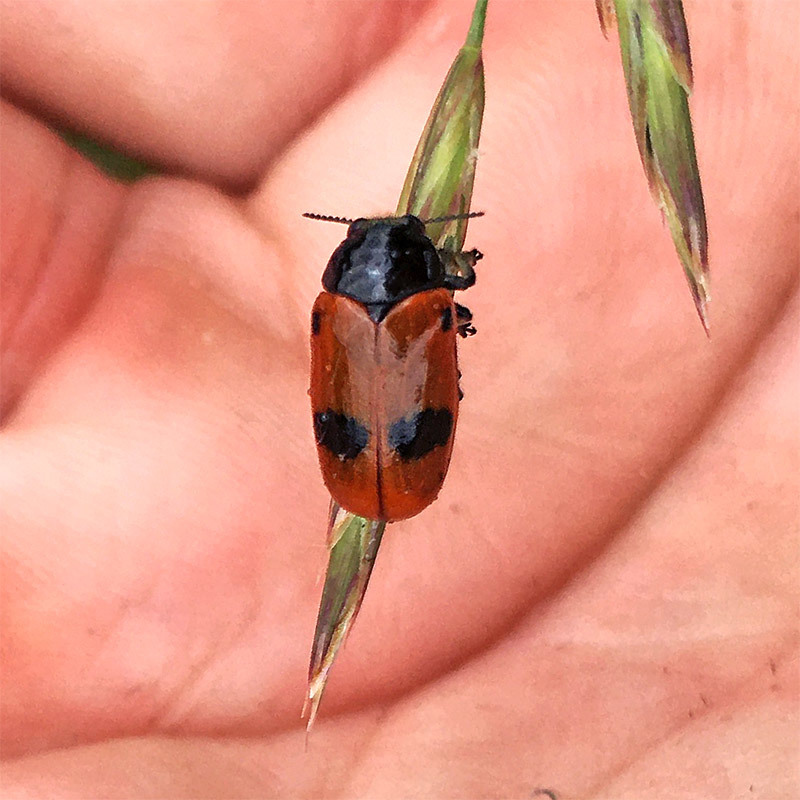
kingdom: Animalia
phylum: Arthropoda
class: Insecta
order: Coleoptera
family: Chrysomelidae
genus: Clytra
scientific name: Clytra laeviuscula
